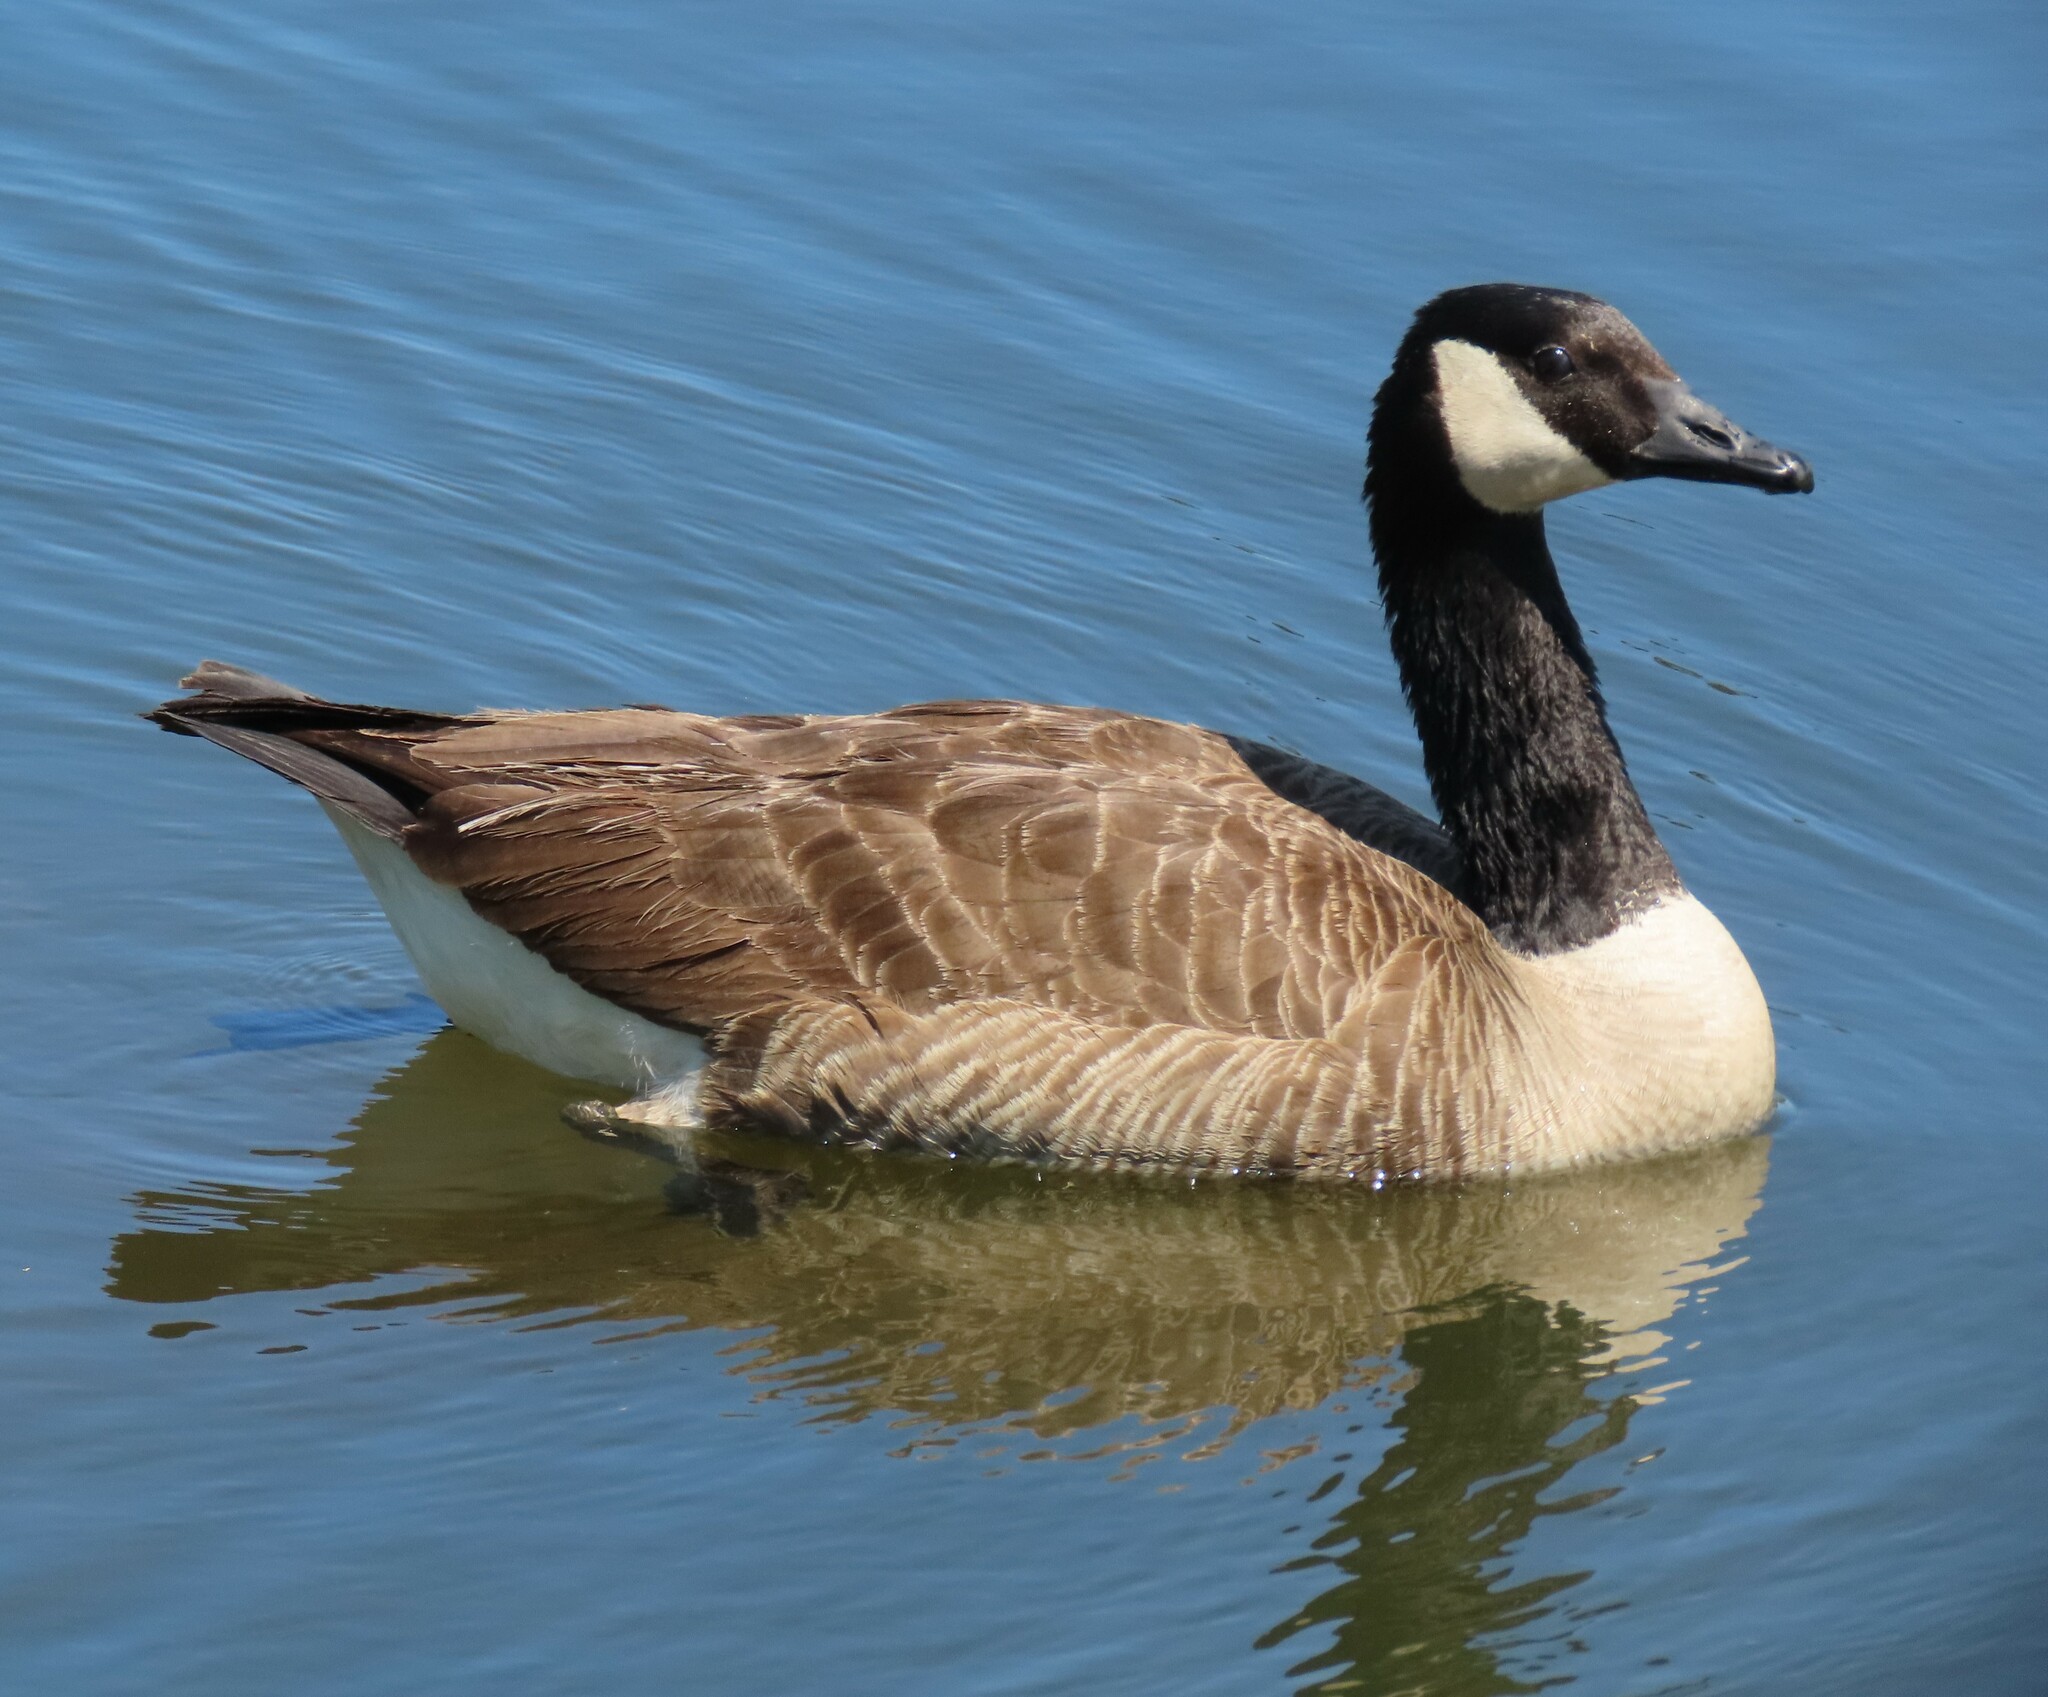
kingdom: Animalia
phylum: Chordata
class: Aves
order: Anseriformes
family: Anatidae
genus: Branta
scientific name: Branta canadensis
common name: Canada goose
